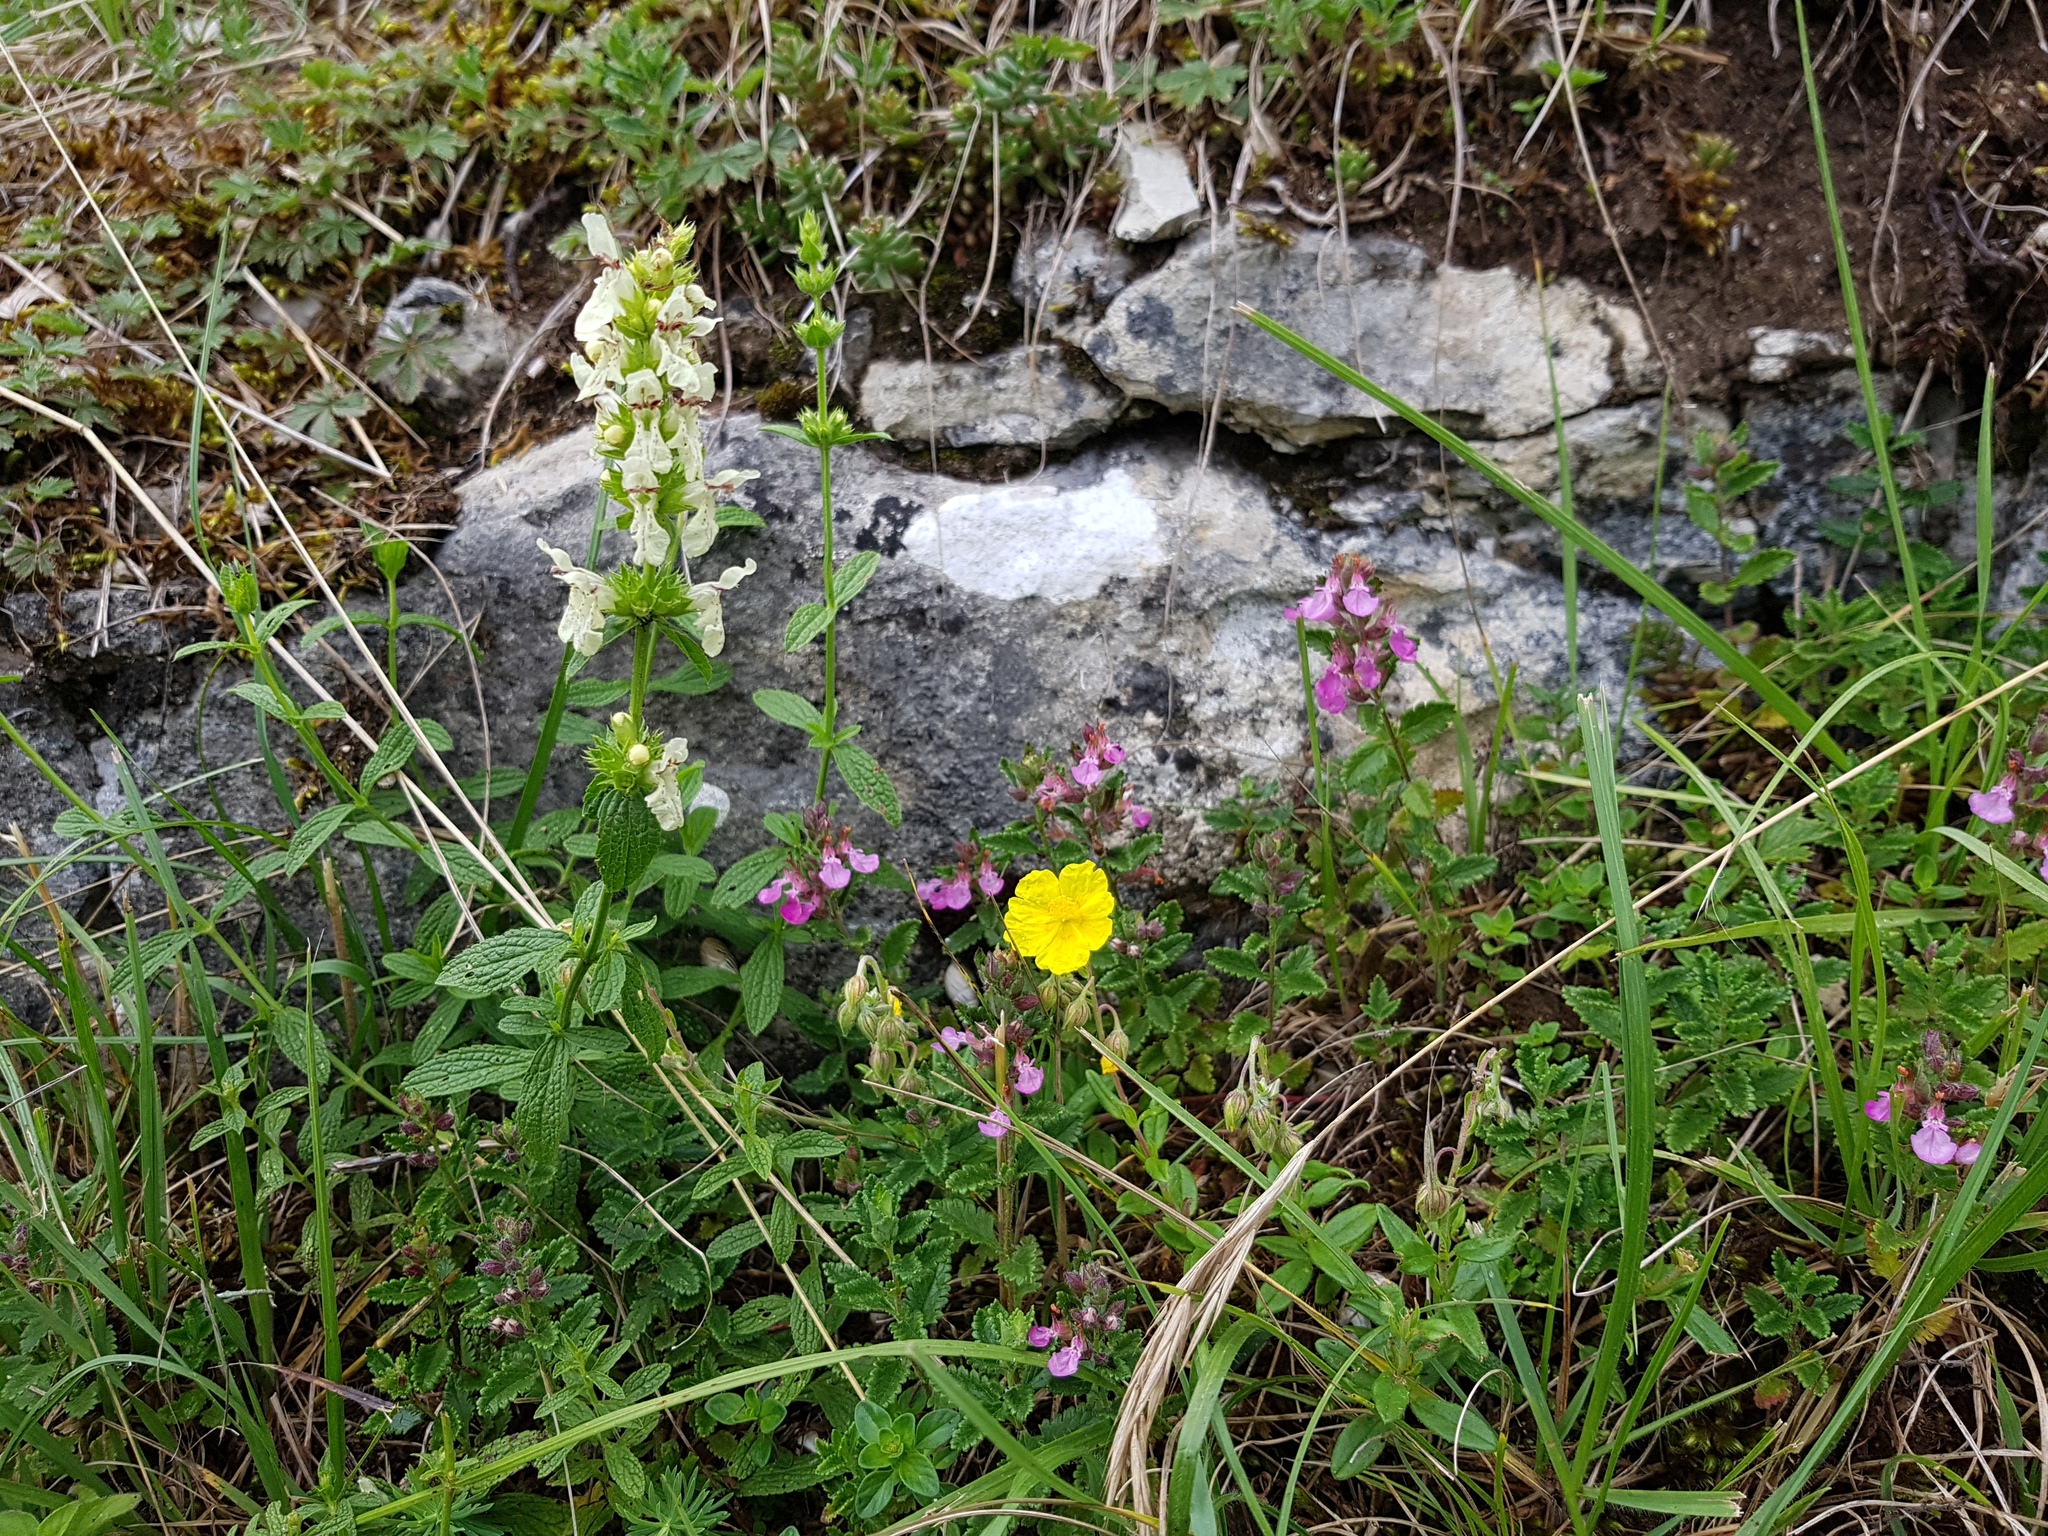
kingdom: Plantae
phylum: Tracheophyta
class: Magnoliopsida
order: Lamiales
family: Lamiaceae
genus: Stachys
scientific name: Stachys recta
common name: Perennial yellow-woundwort
